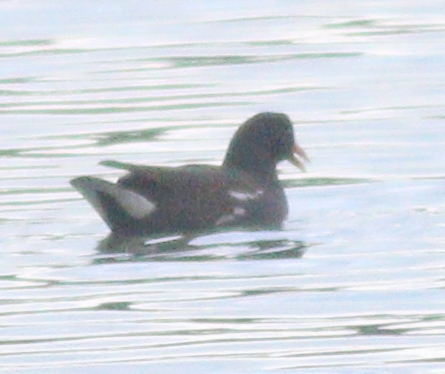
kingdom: Animalia
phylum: Chordata
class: Aves
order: Gruiformes
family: Rallidae
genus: Gallinula
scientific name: Gallinula chloropus
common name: Common moorhen
